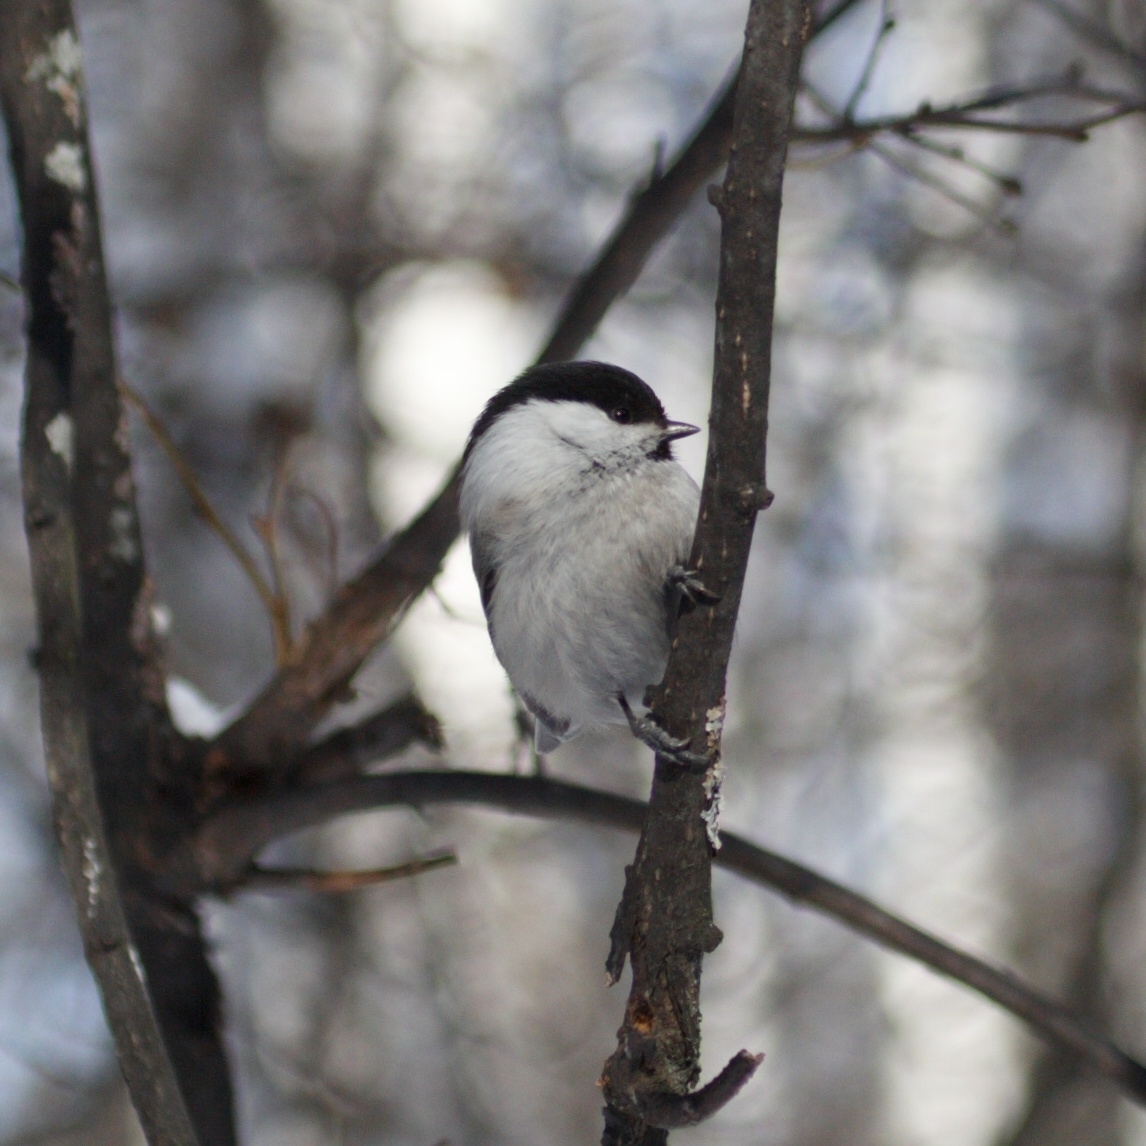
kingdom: Animalia
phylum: Chordata
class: Aves
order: Passeriformes
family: Paridae
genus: Poecile
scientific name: Poecile montanus
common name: Willow tit
